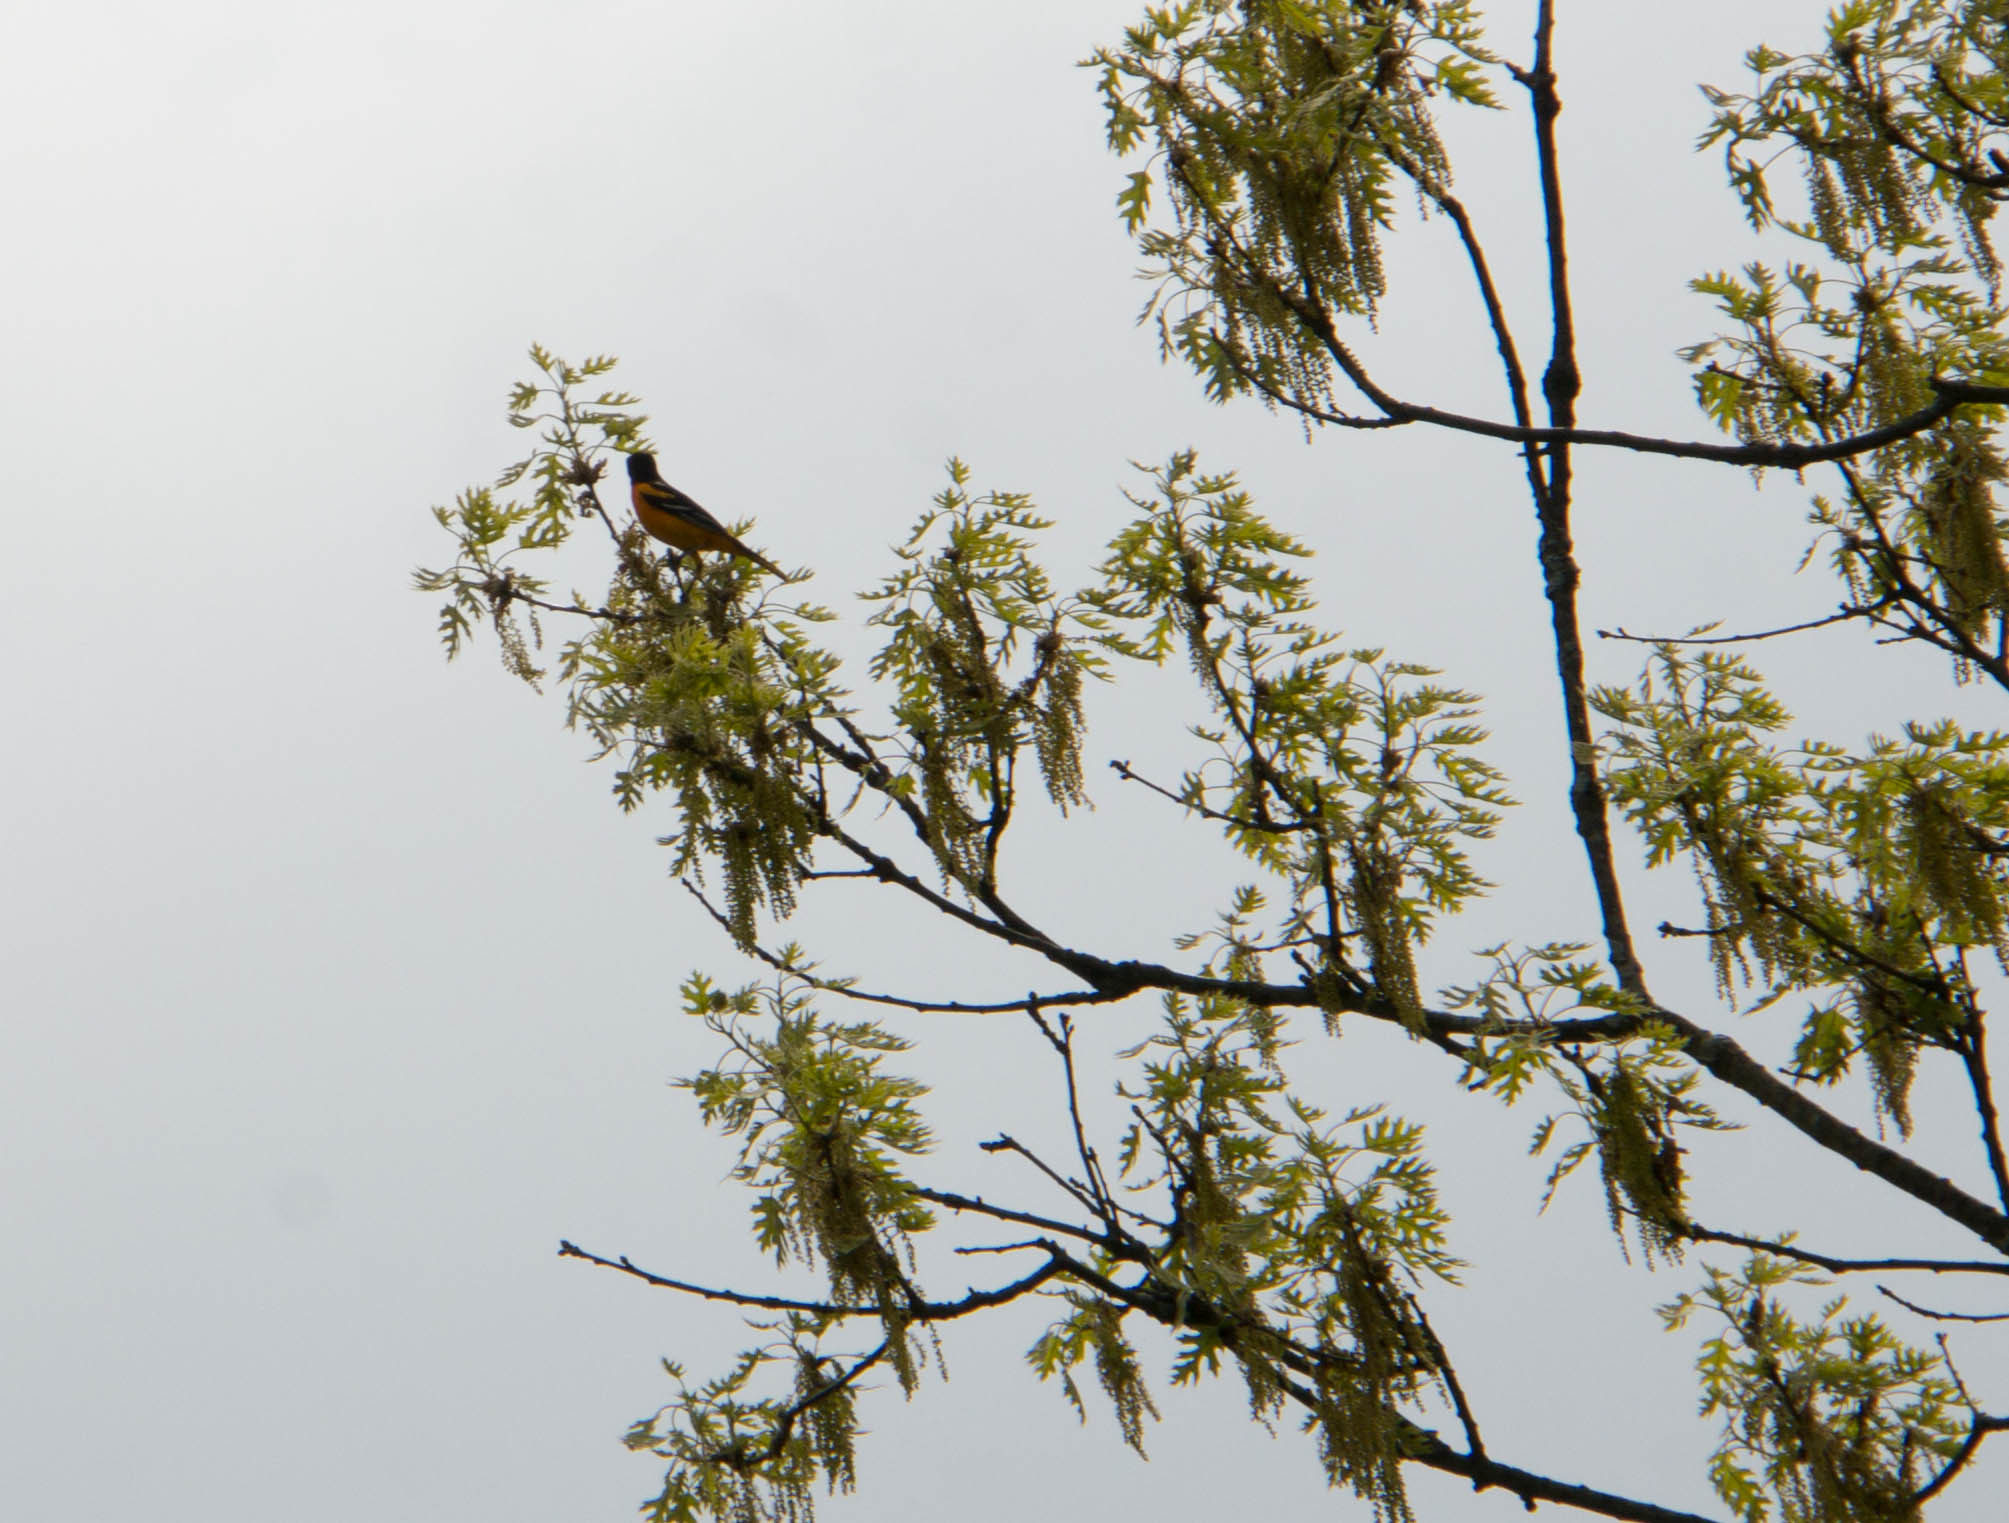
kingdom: Animalia
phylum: Chordata
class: Aves
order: Passeriformes
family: Icteridae
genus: Icterus
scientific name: Icterus galbula
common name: Baltimore oriole
